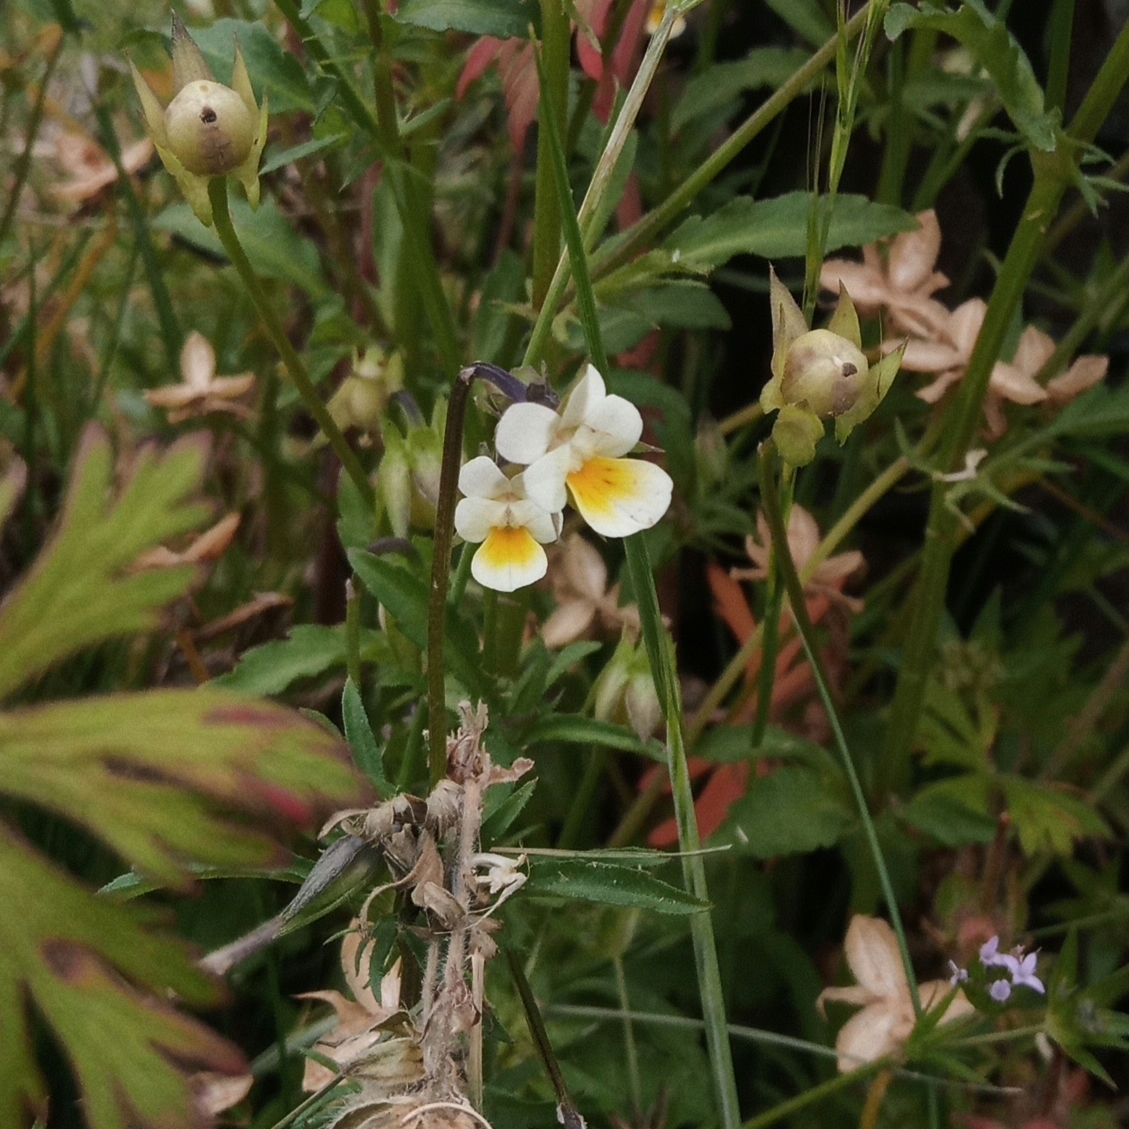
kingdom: Plantae
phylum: Tracheophyta
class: Magnoliopsida
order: Malpighiales
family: Violaceae
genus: Viola
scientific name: Viola arvensis
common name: Field pansy
